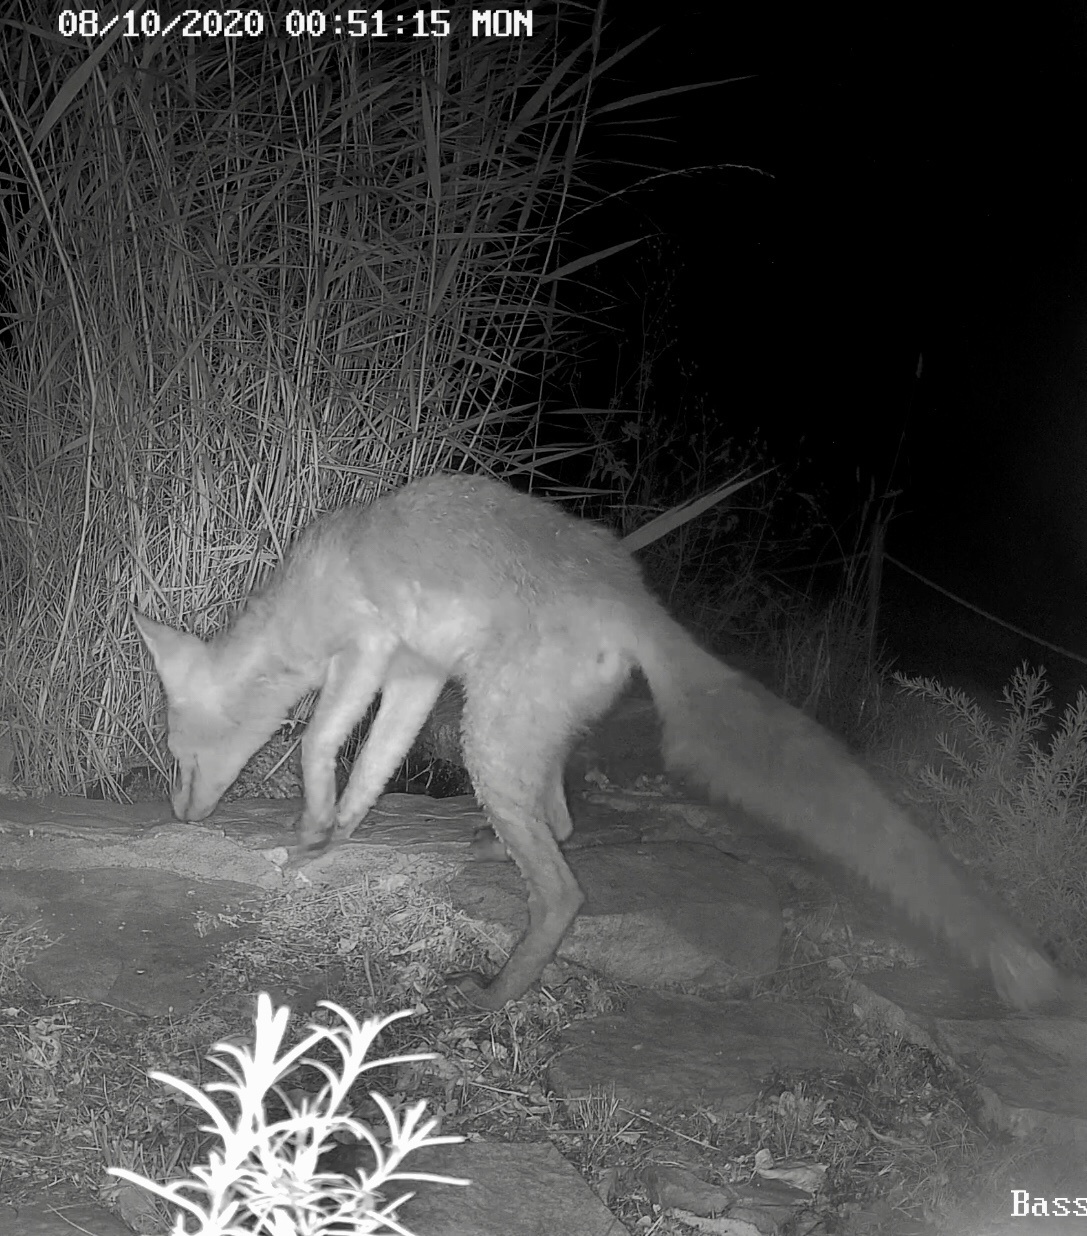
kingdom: Animalia
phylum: Chordata
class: Mammalia
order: Carnivora
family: Canidae
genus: Vulpes
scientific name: Vulpes vulpes
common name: Red fox
